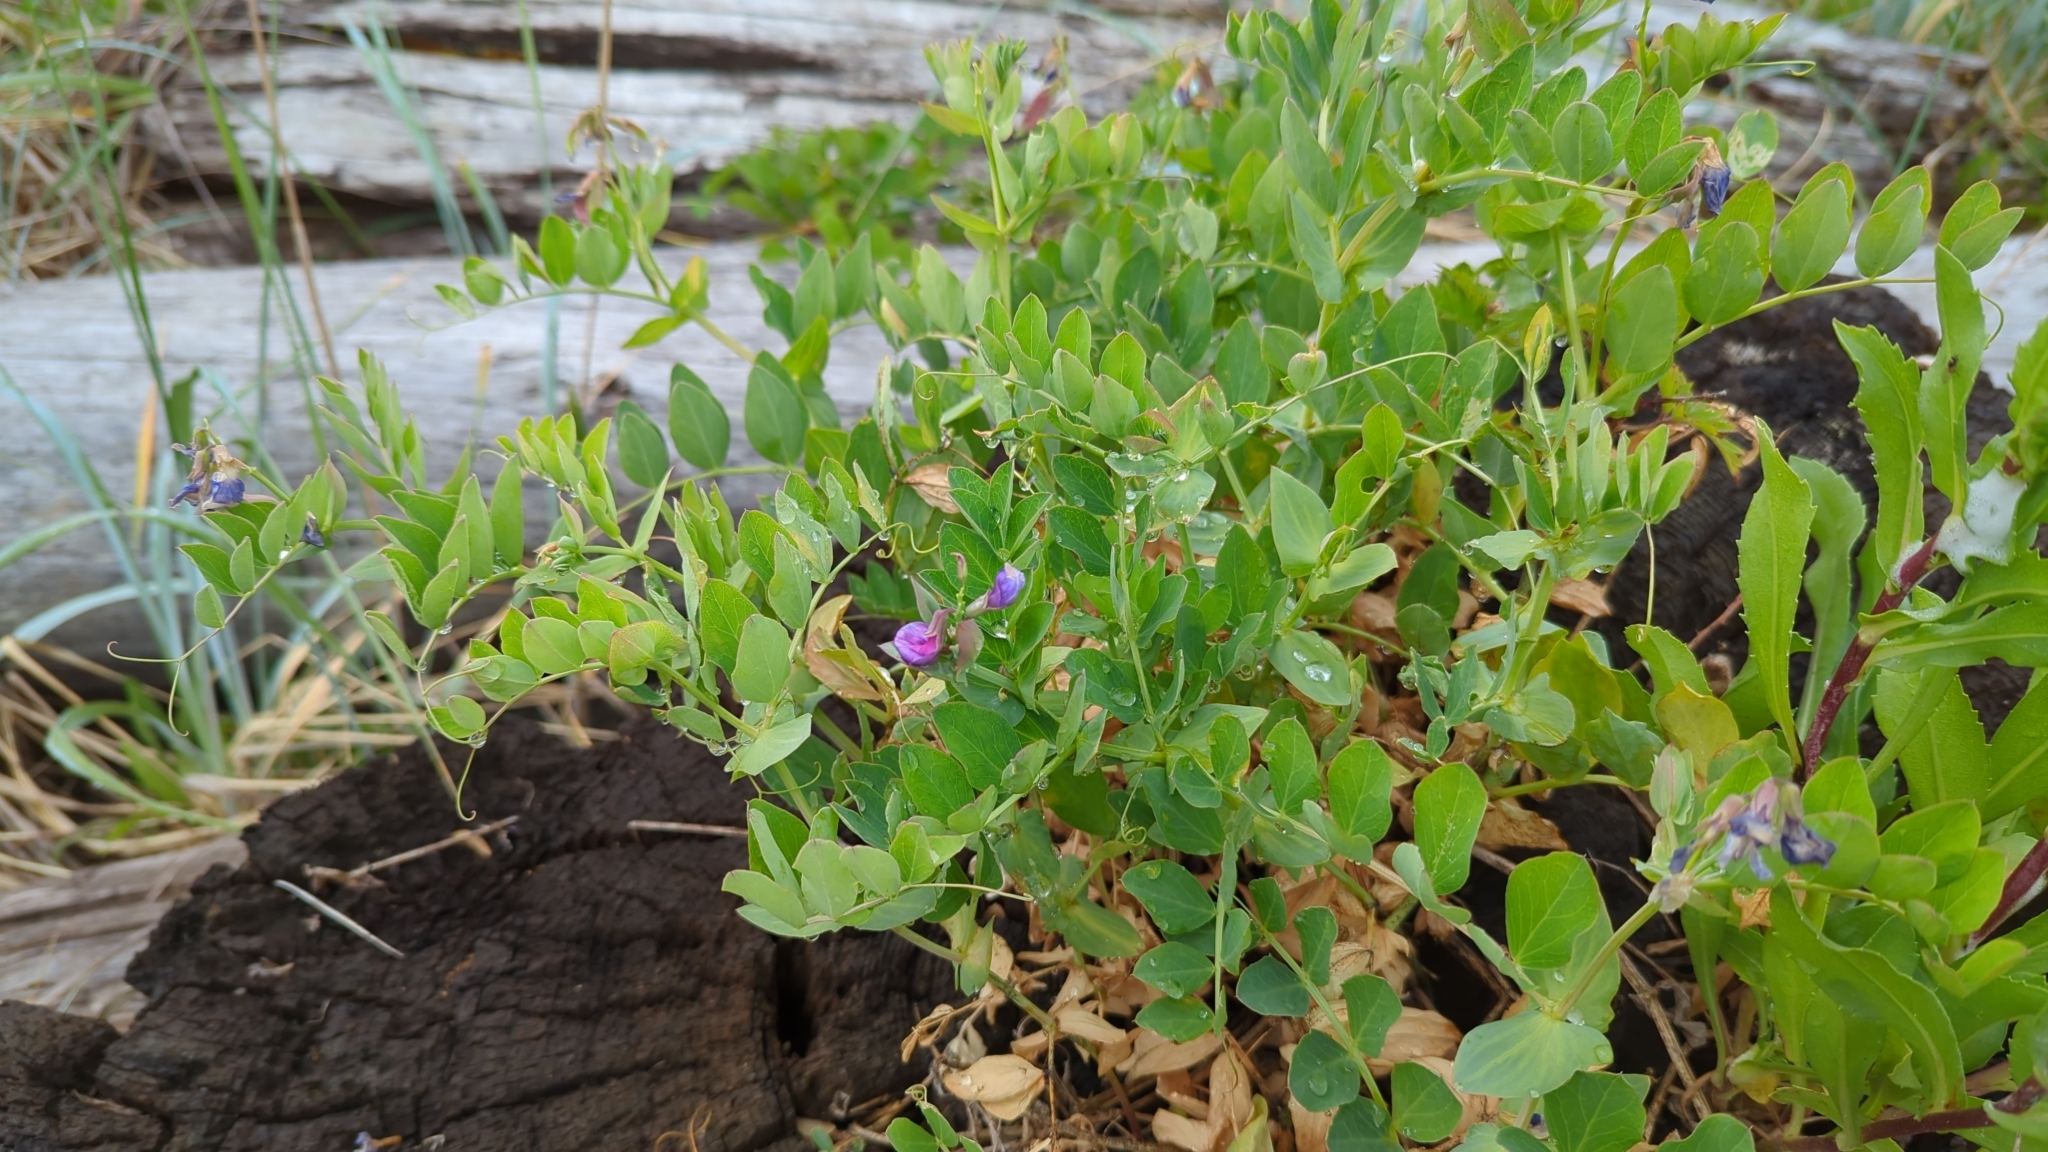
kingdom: Plantae
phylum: Tracheophyta
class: Magnoliopsida
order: Fabales
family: Fabaceae
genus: Lathyrus
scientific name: Lathyrus japonicus
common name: Sea pea
